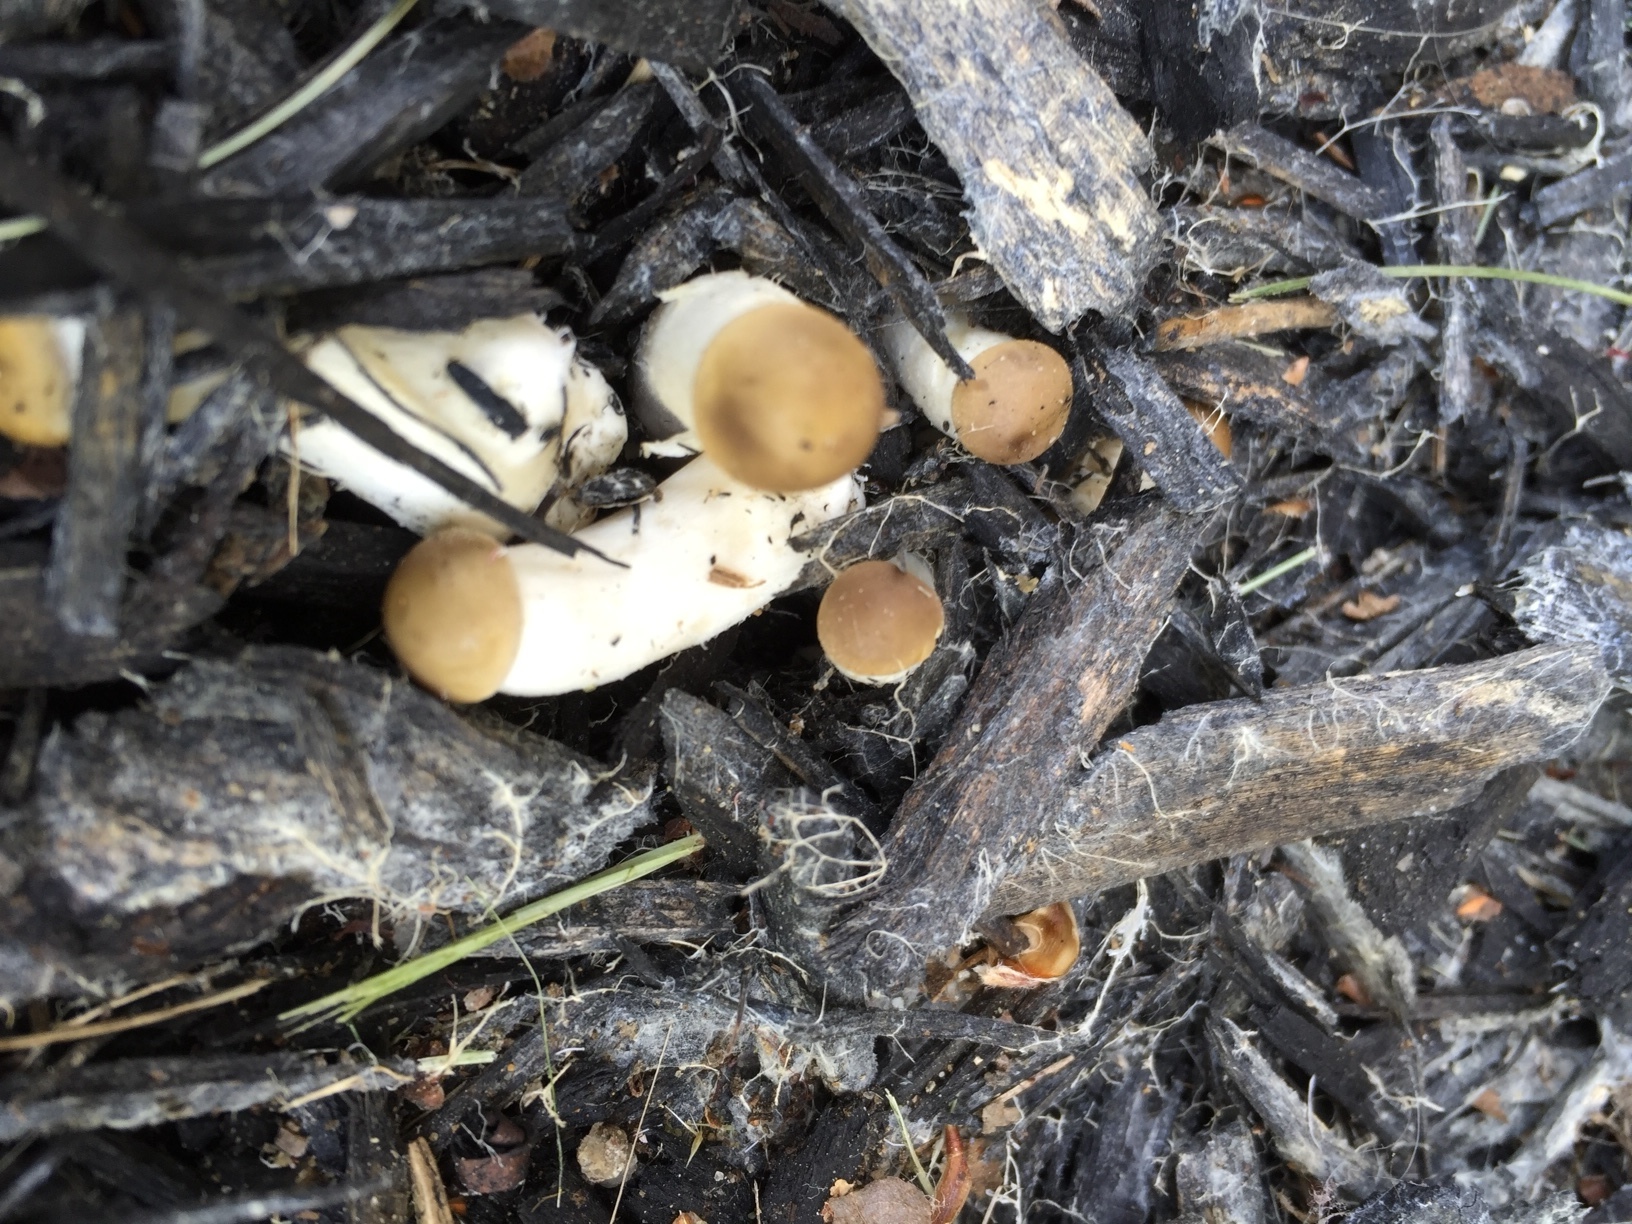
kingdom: Fungi
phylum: Basidiomycota
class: Agaricomycetes
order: Agaricales
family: Strophariaceae
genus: Agrocybe
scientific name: Agrocybe praecox
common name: Spring fieldcap
